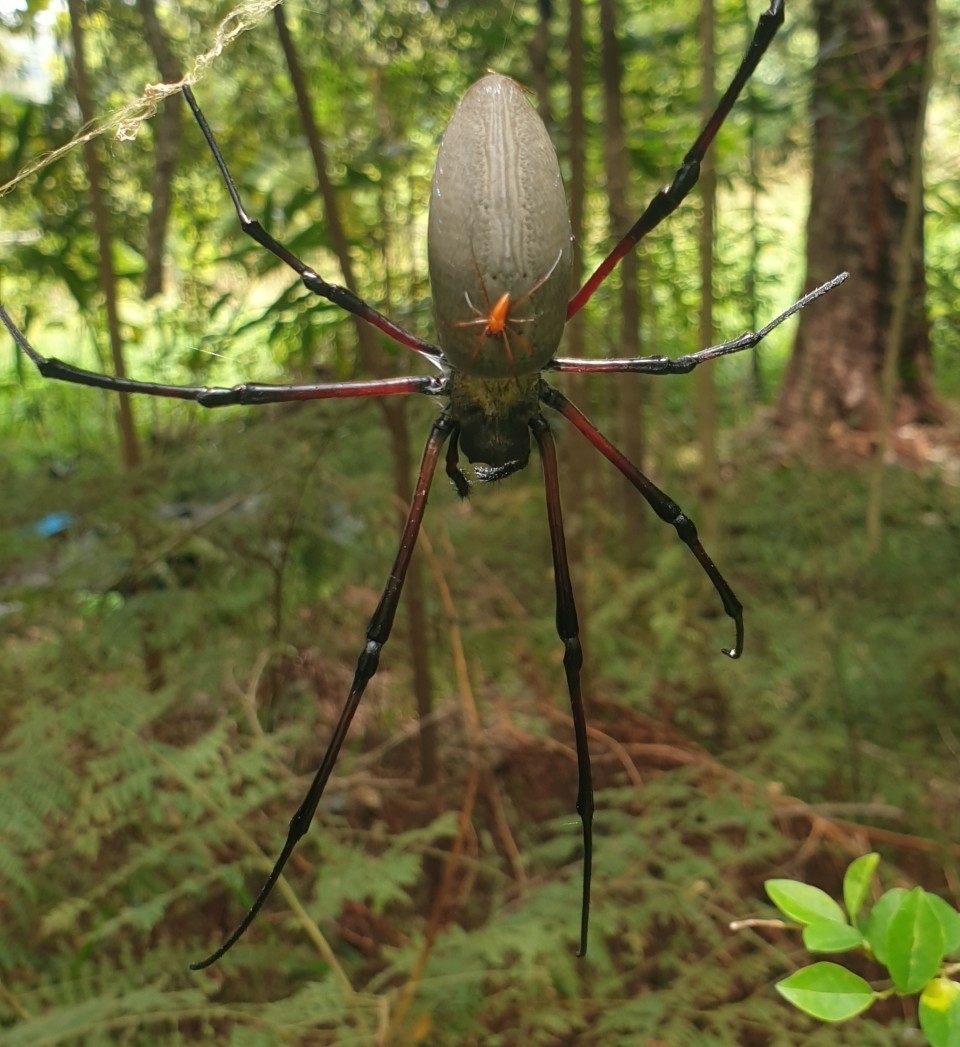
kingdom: Animalia
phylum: Arthropoda
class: Arachnida
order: Araneae
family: Araneidae
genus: Nephila
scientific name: Nephila pilipes
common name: Giant golden orb weaver
